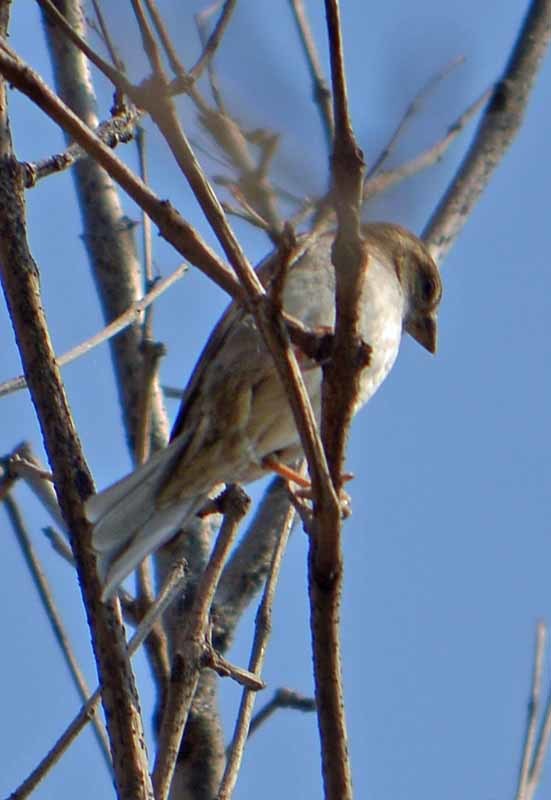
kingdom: Animalia
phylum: Chordata
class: Aves
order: Passeriformes
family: Passeridae
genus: Passer
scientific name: Passer domesticus
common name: House sparrow
